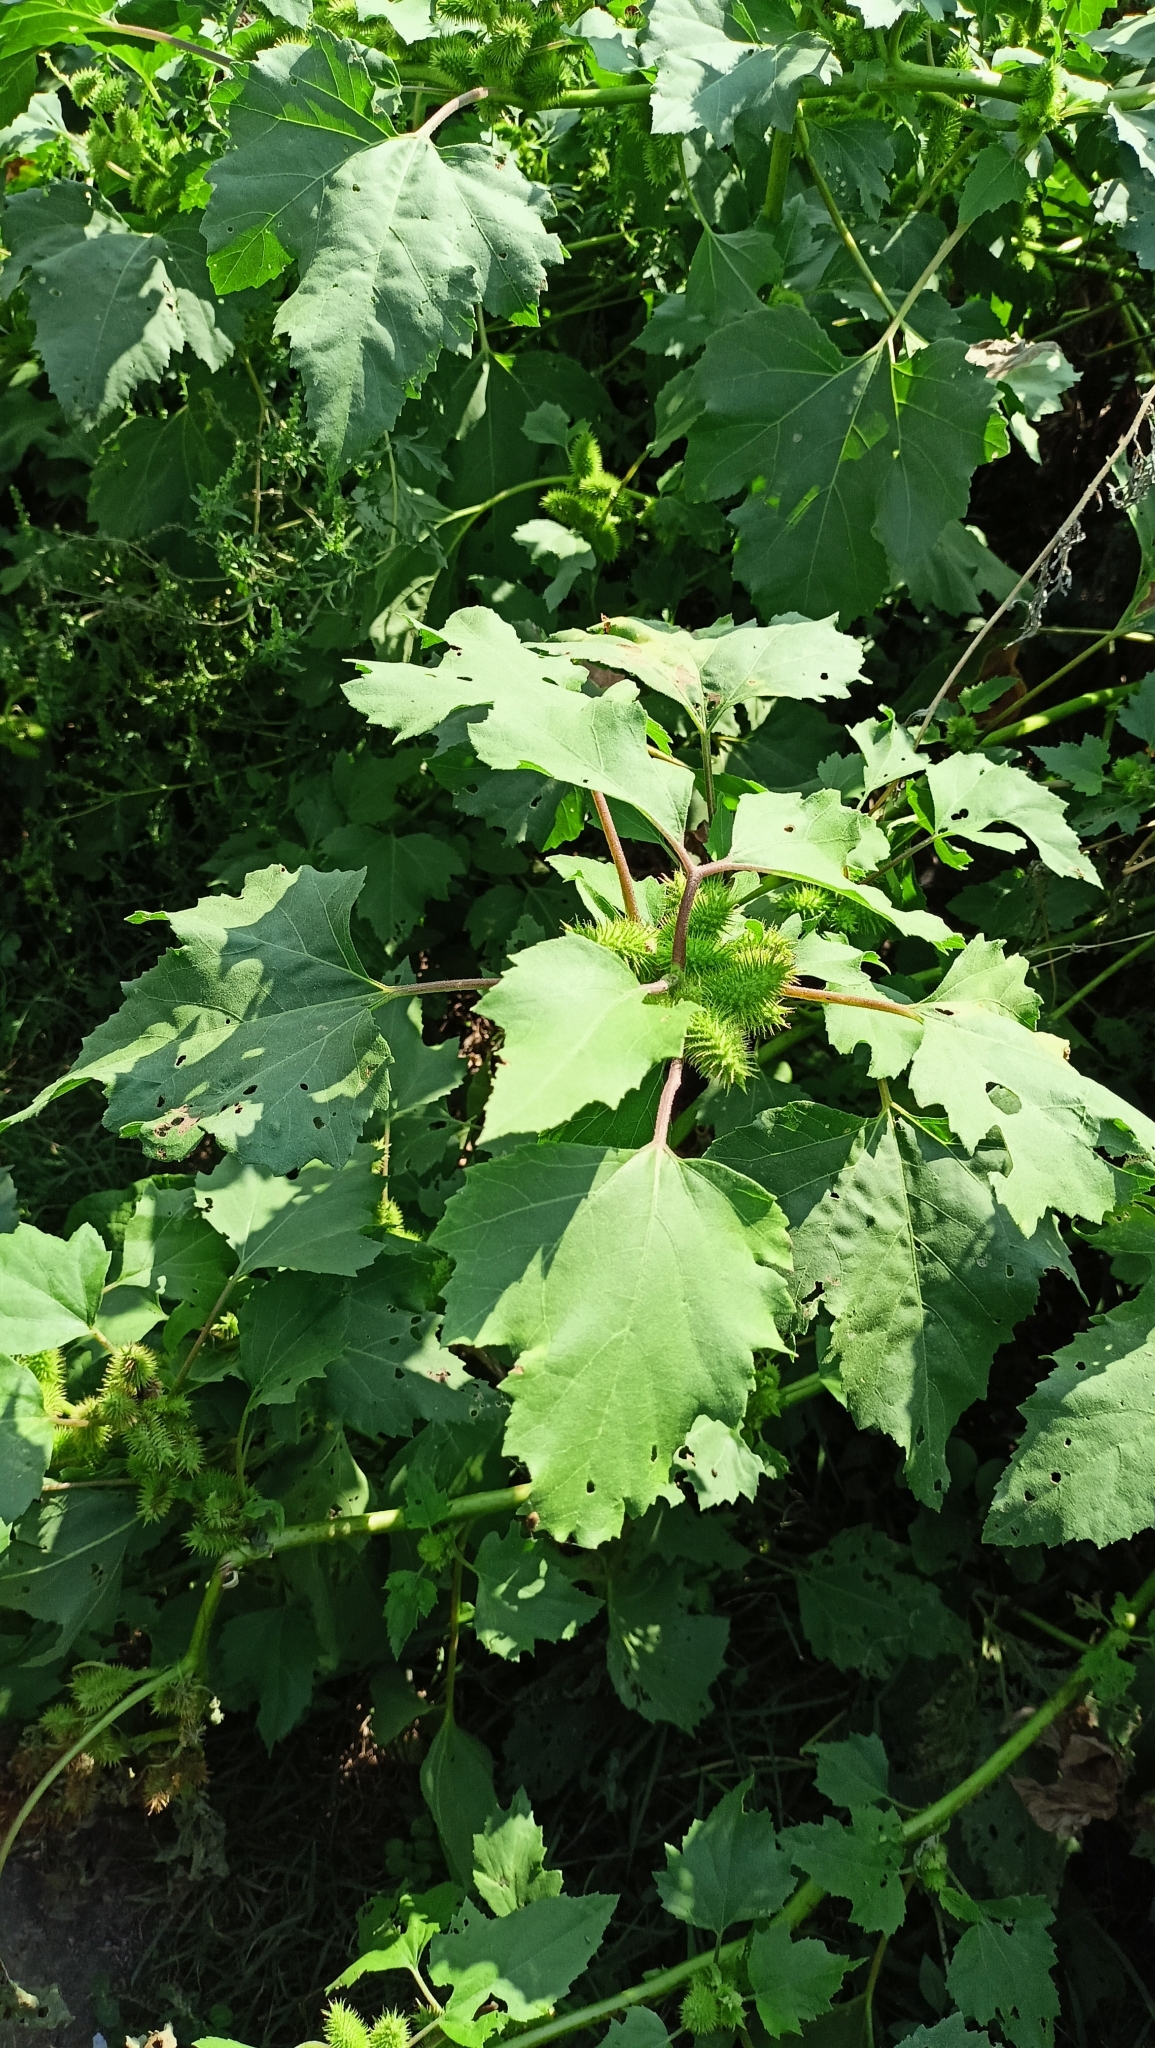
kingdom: Plantae
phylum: Tracheophyta
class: Magnoliopsida
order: Asterales
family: Asteraceae
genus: Xanthium
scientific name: Xanthium orientale
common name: Californian burr
